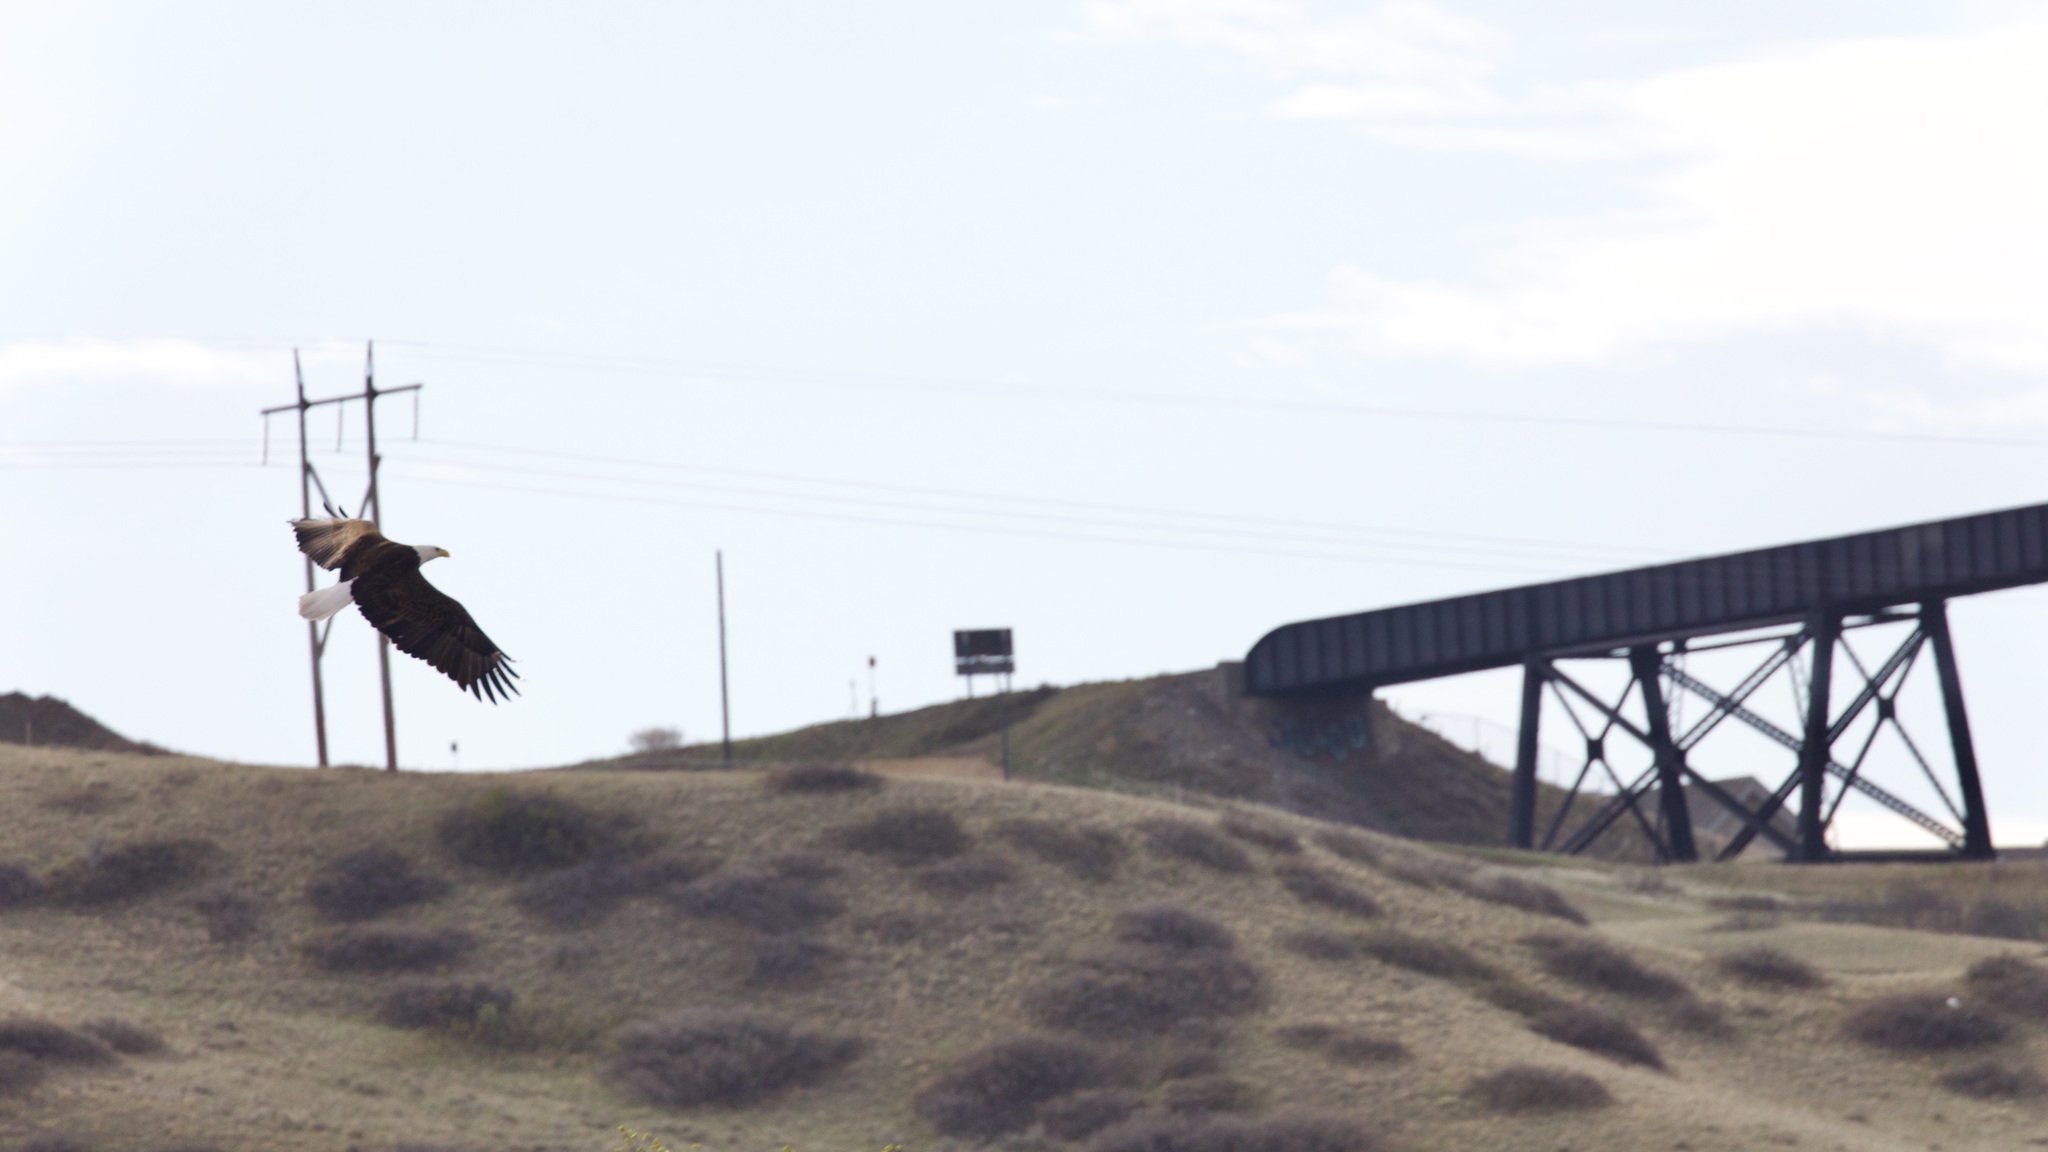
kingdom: Animalia
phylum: Chordata
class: Aves
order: Accipitriformes
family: Accipitridae
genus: Haliaeetus
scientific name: Haliaeetus leucocephalus
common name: Bald eagle
